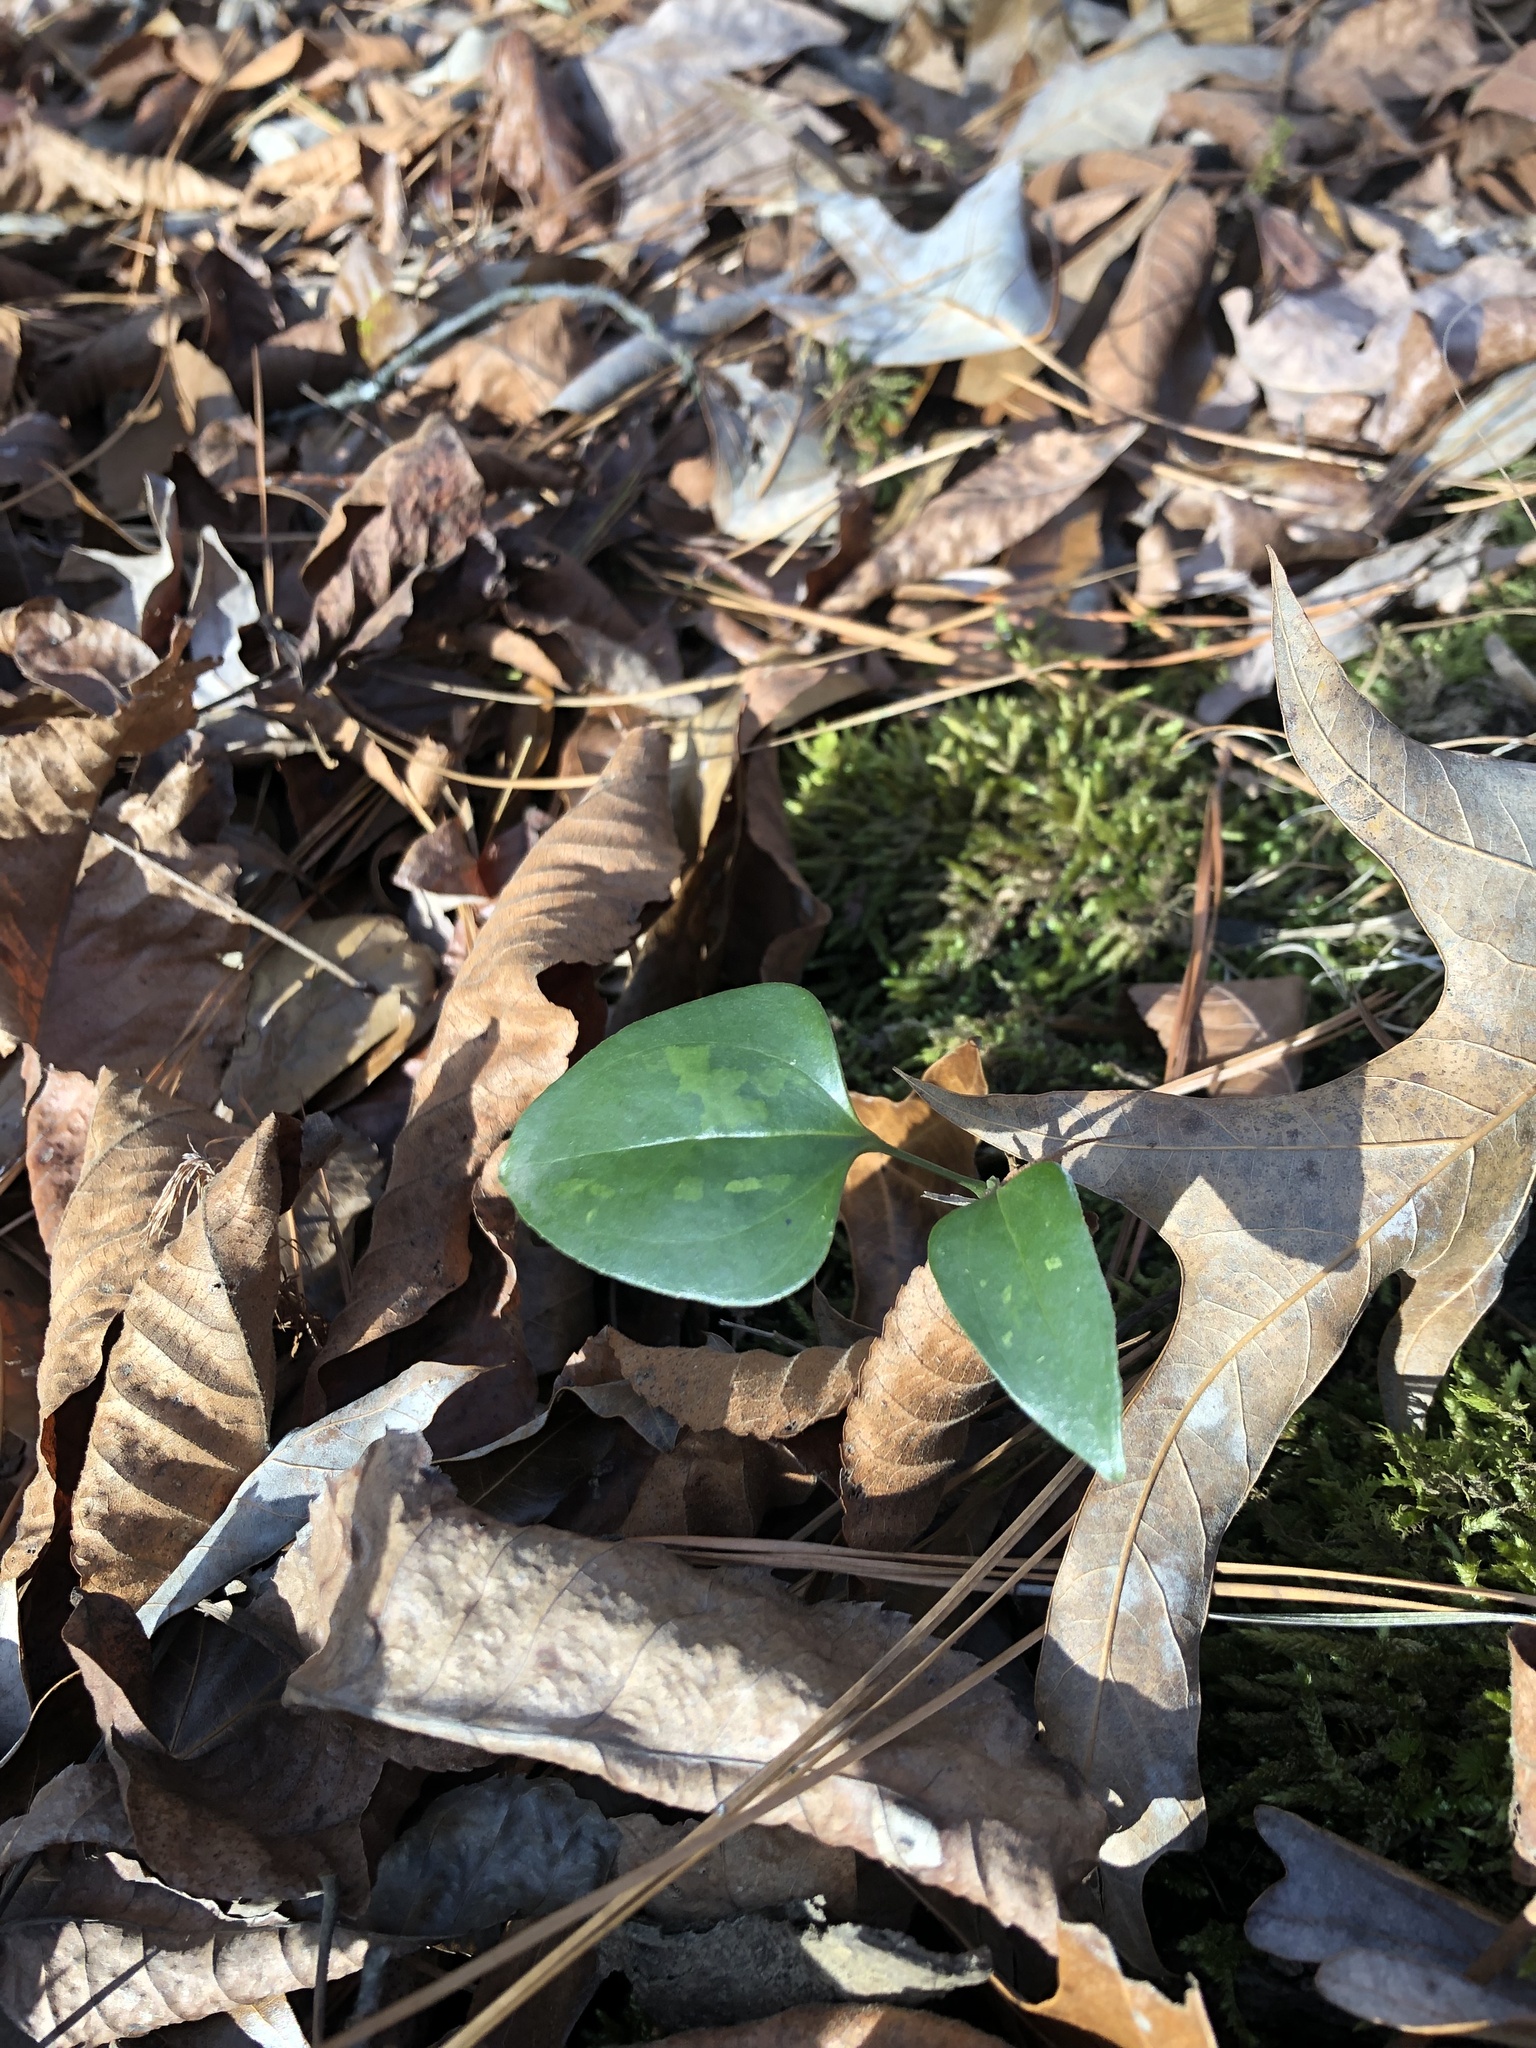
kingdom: Plantae
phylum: Tracheophyta
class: Liliopsida
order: Liliales
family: Smilacaceae
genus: Smilax
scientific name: Smilax glauca
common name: Cat greenbrier
